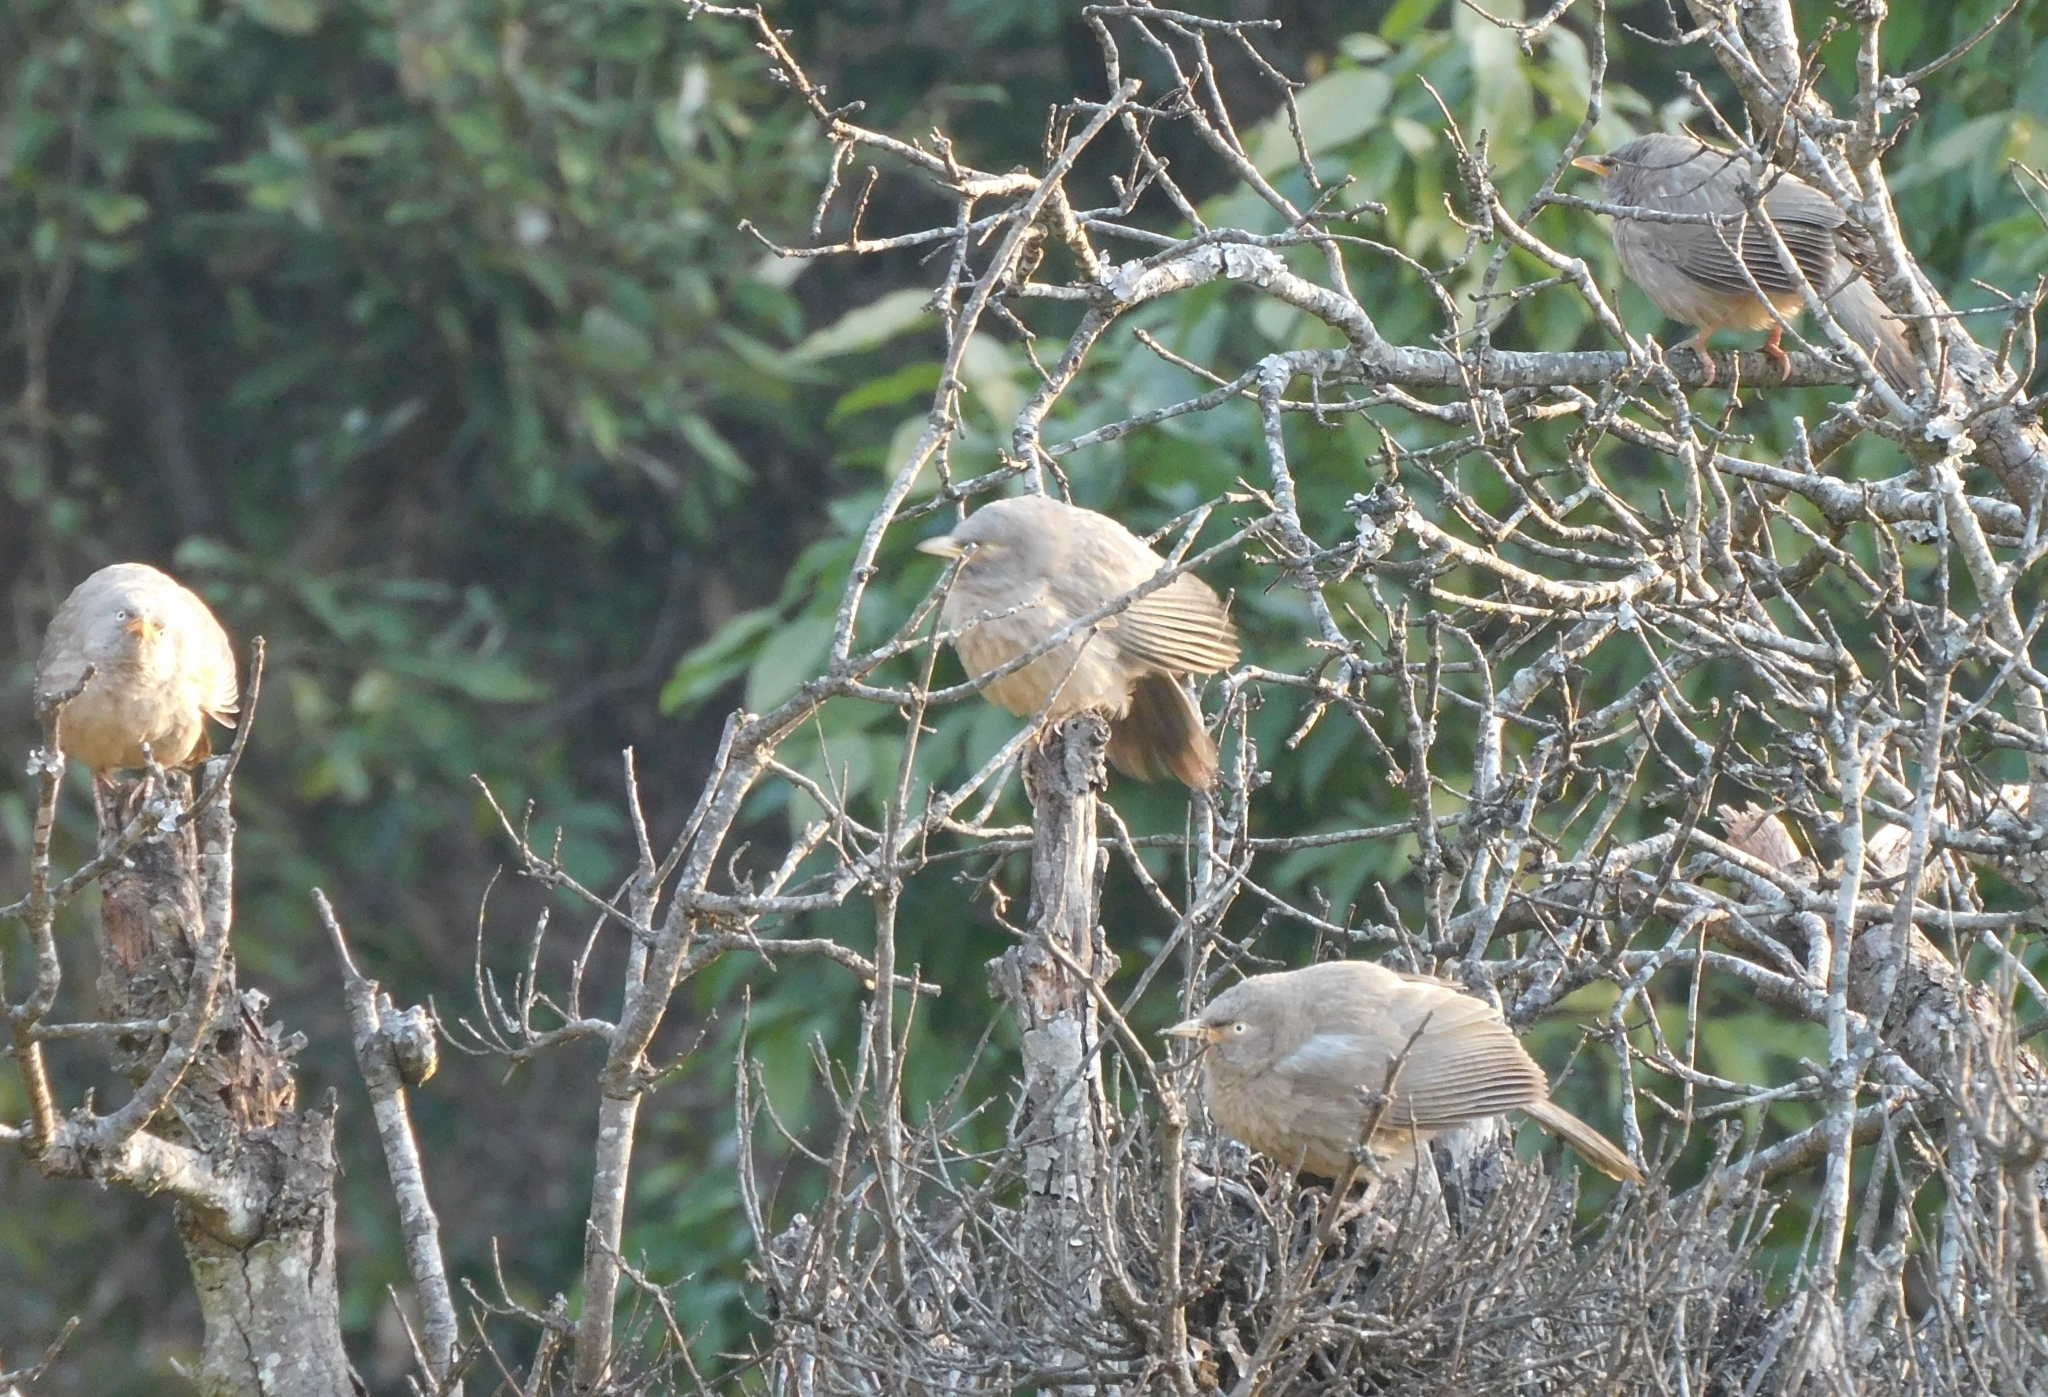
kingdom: Animalia
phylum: Chordata
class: Aves
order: Passeriformes
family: Leiothrichidae
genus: Turdoides
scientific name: Turdoides striata
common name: Jungle babbler
